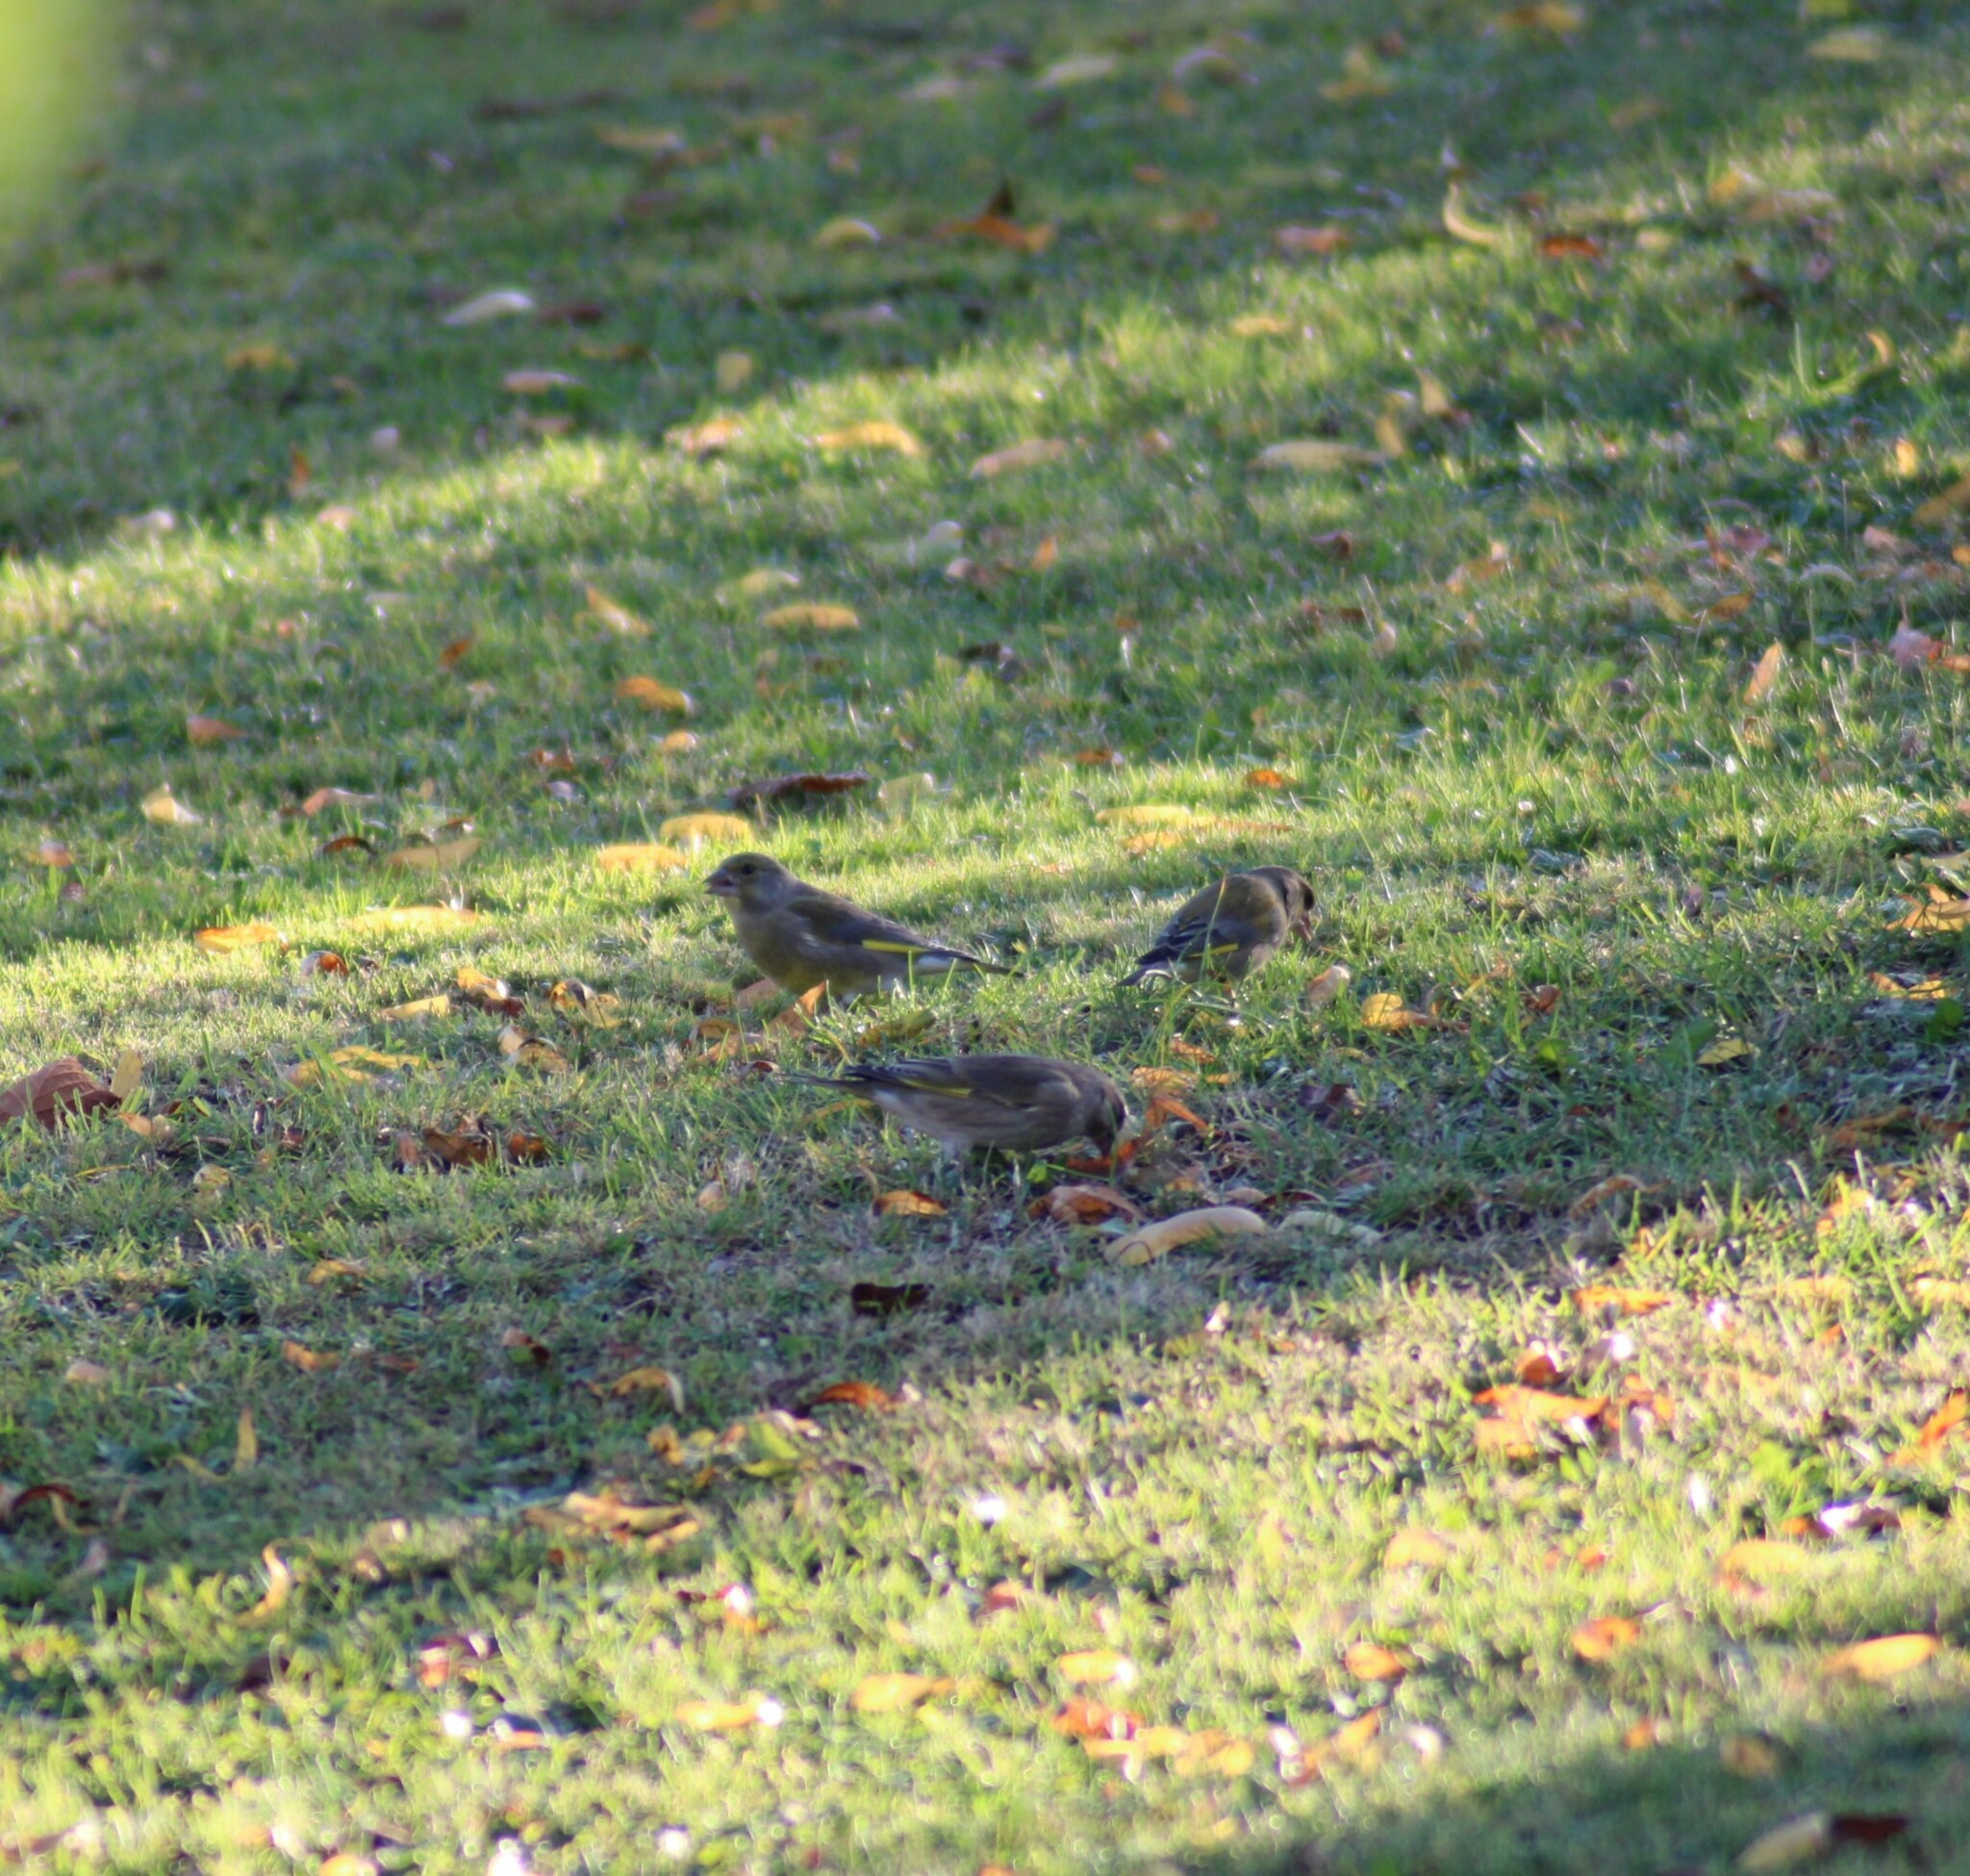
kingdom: Plantae
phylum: Tracheophyta
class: Liliopsida
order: Poales
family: Poaceae
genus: Chloris
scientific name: Chloris chloris
